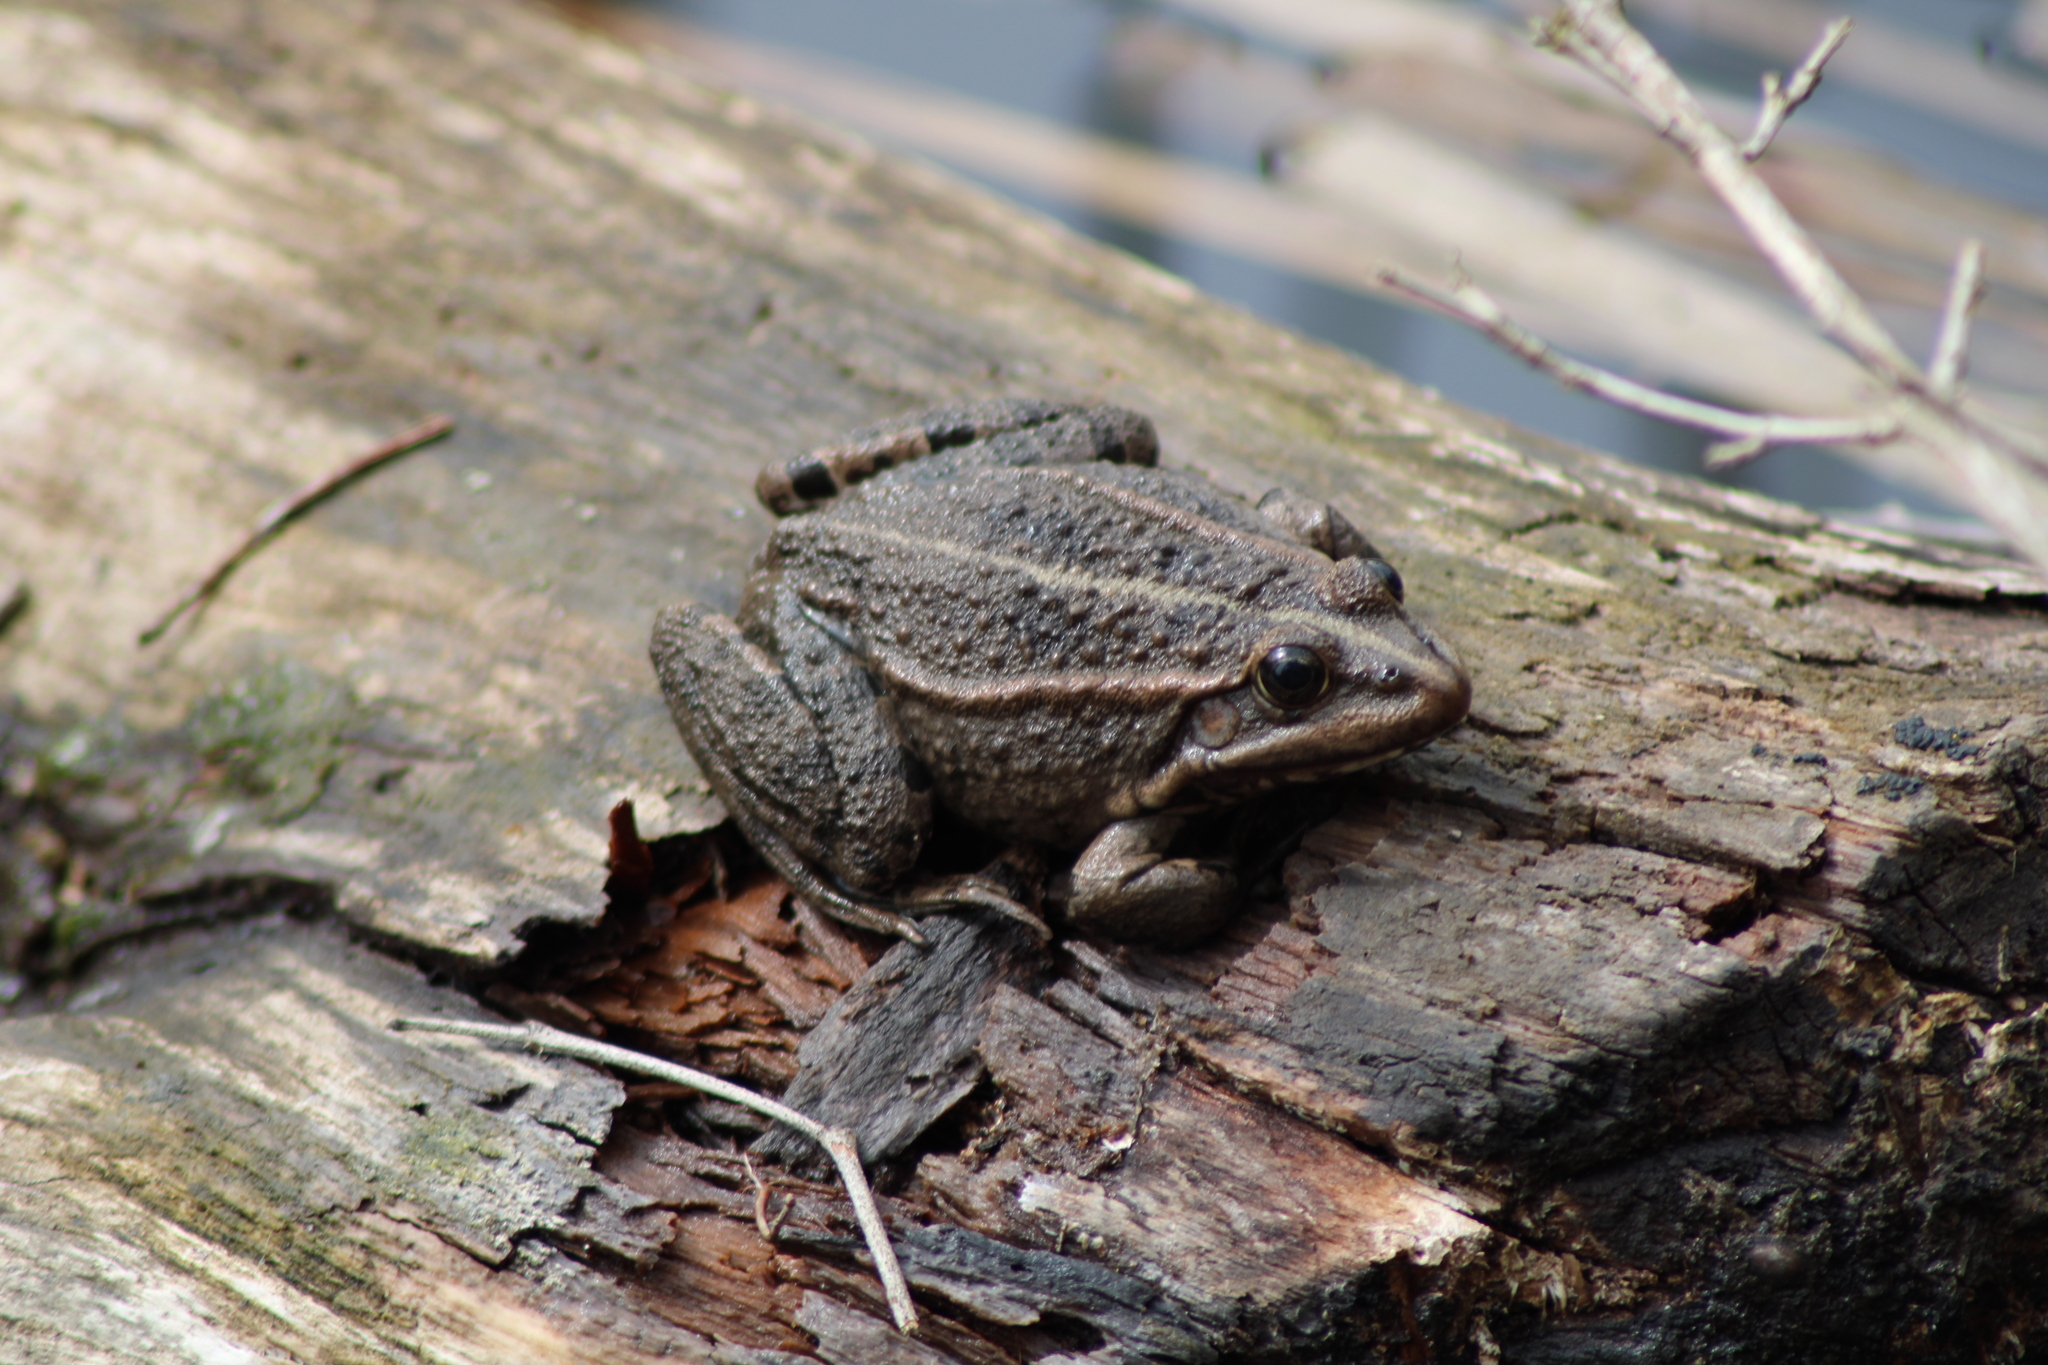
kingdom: Animalia
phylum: Chordata
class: Amphibia
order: Anura
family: Ranidae
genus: Pelophylax
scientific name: Pelophylax
